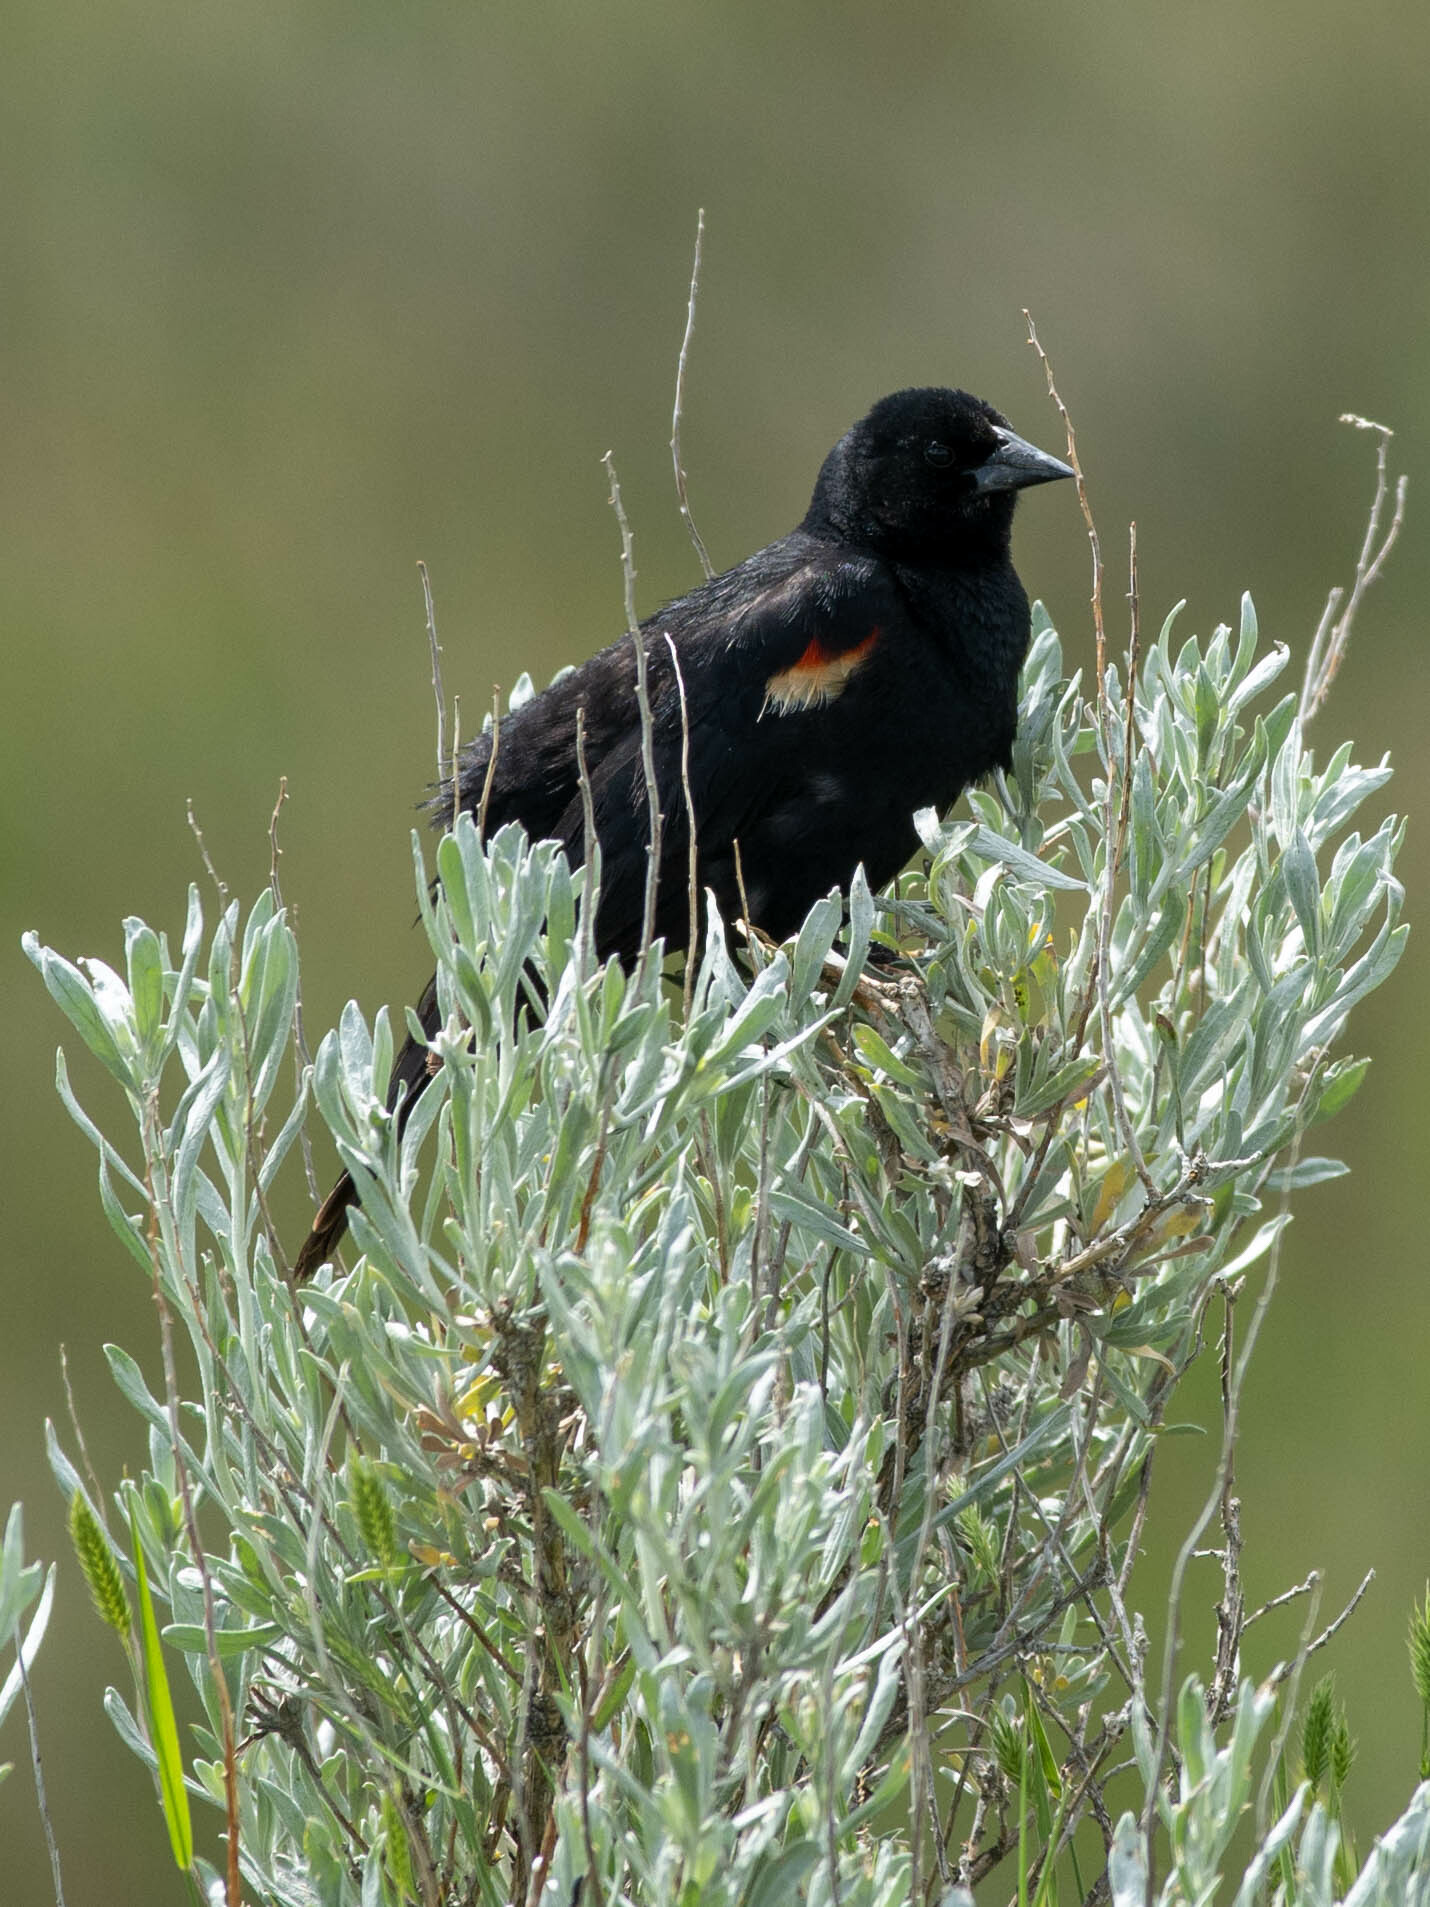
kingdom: Animalia
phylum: Chordata
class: Aves
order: Passeriformes
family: Icteridae
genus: Agelaius
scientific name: Agelaius phoeniceus
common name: Red-winged blackbird
